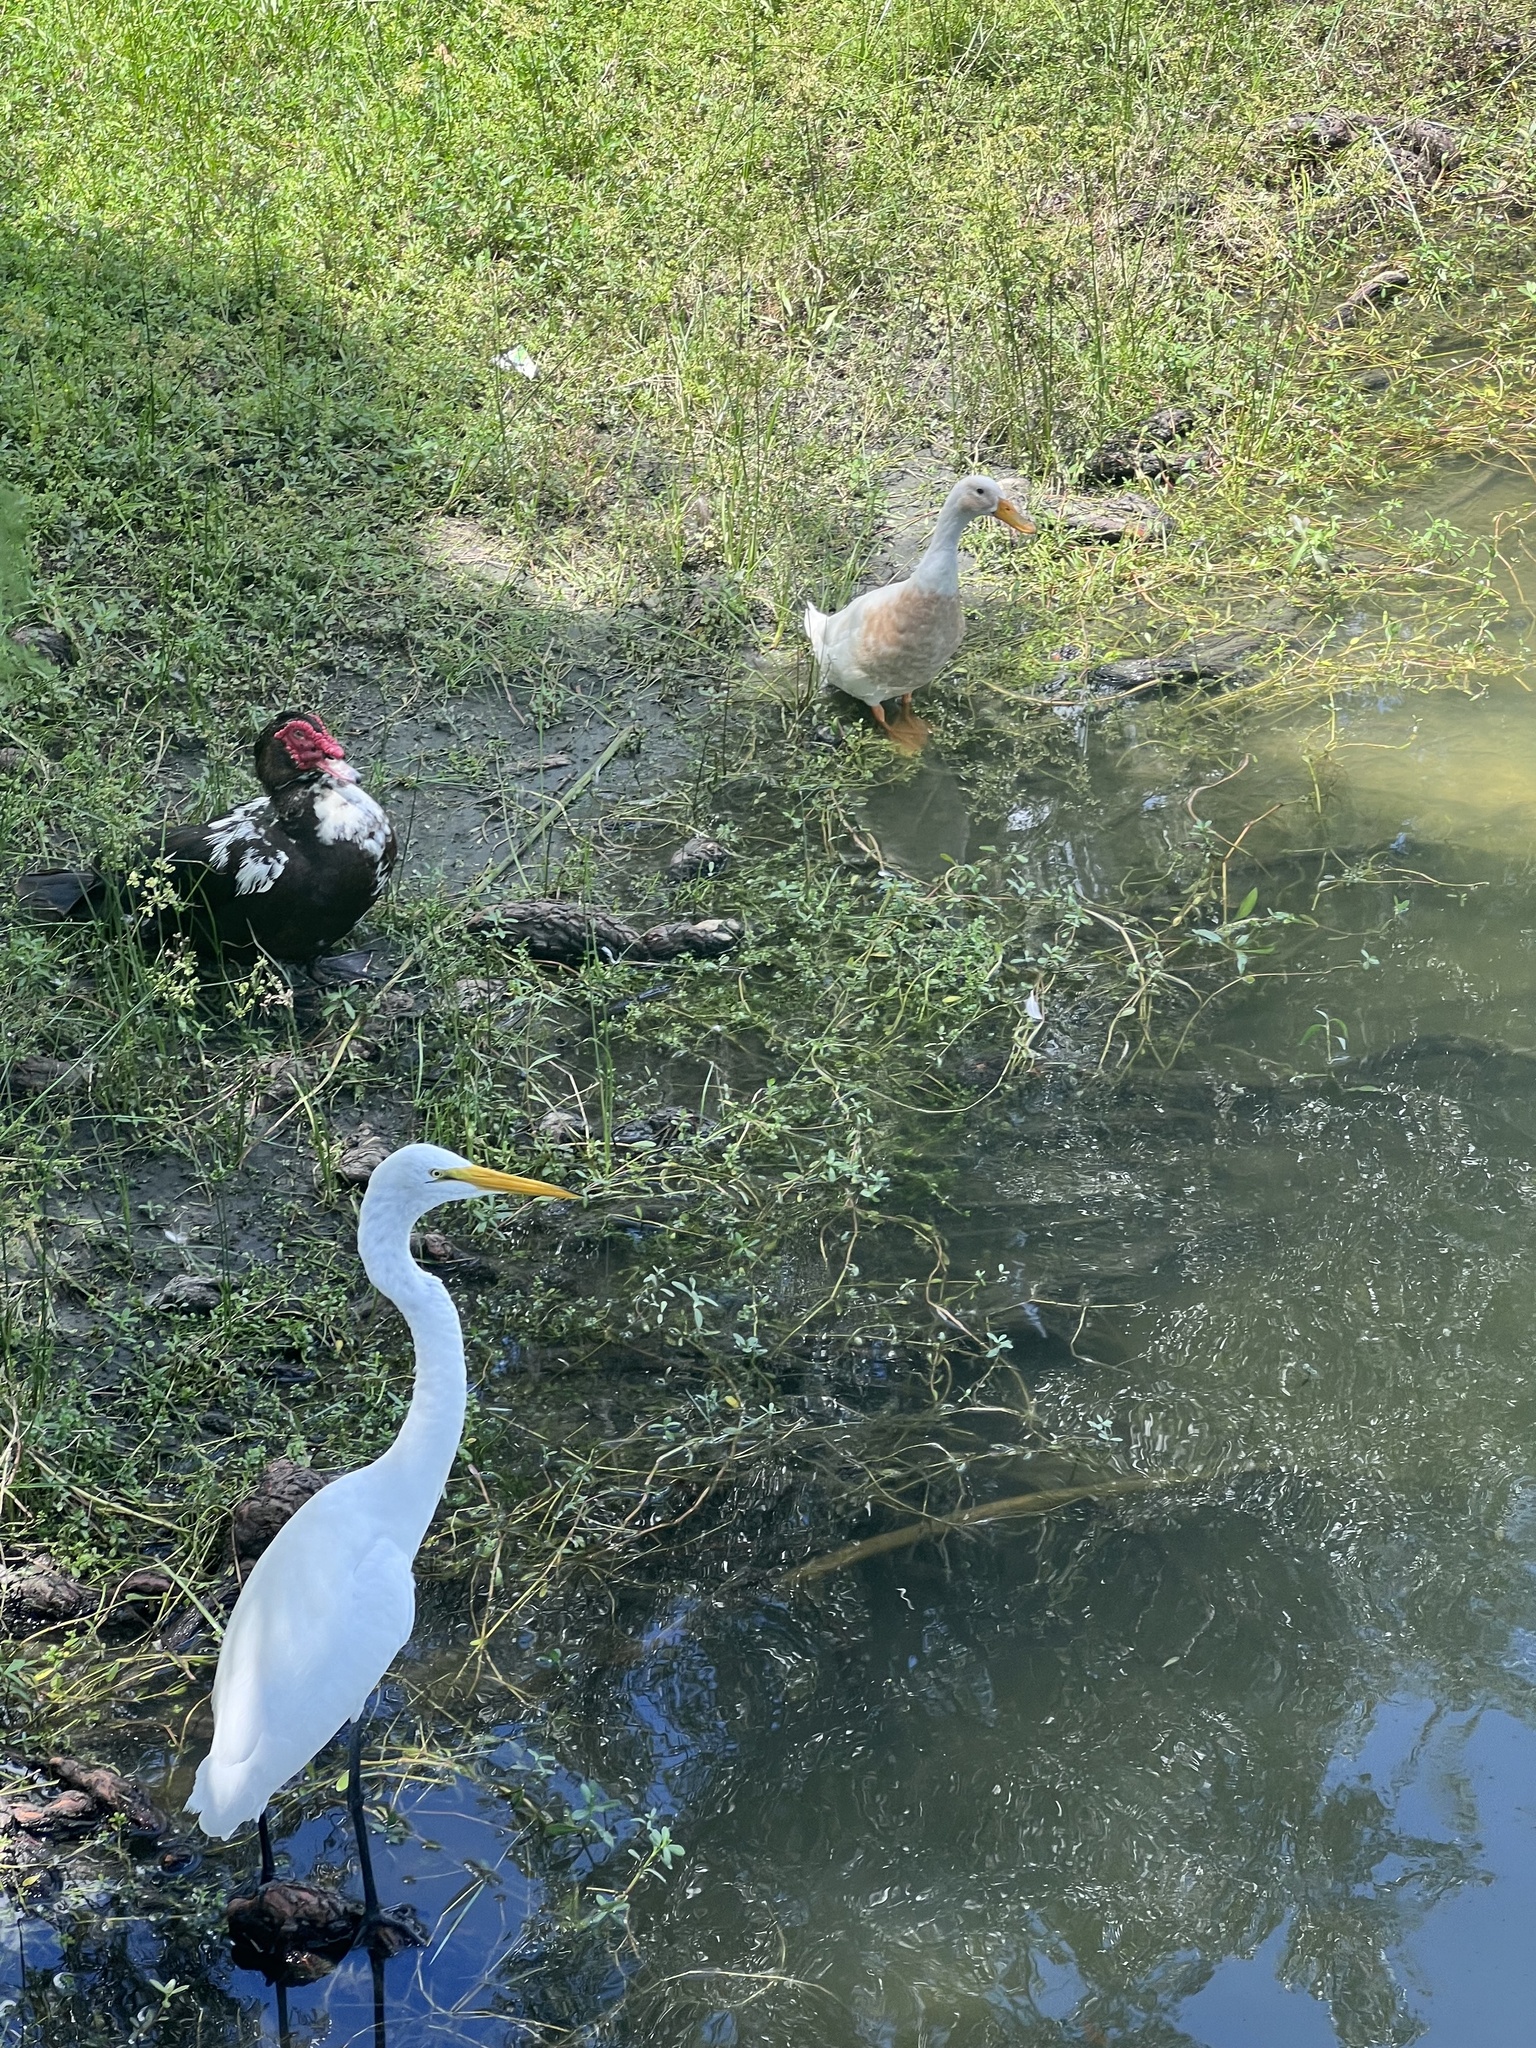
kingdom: Animalia
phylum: Chordata
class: Aves
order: Anseriformes
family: Anatidae
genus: Anas
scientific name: Anas platyrhynchos
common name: Mallard
